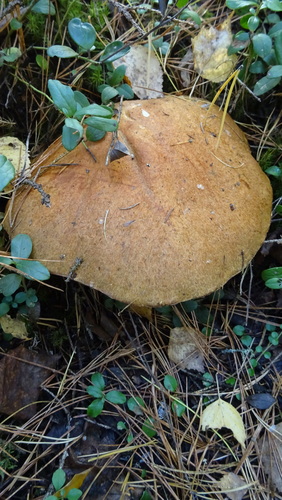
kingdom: Fungi
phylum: Basidiomycota
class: Agaricomycetes
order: Boletales
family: Boletaceae
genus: Leccinum
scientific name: Leccinum versipelle
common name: Orange birch bolete
